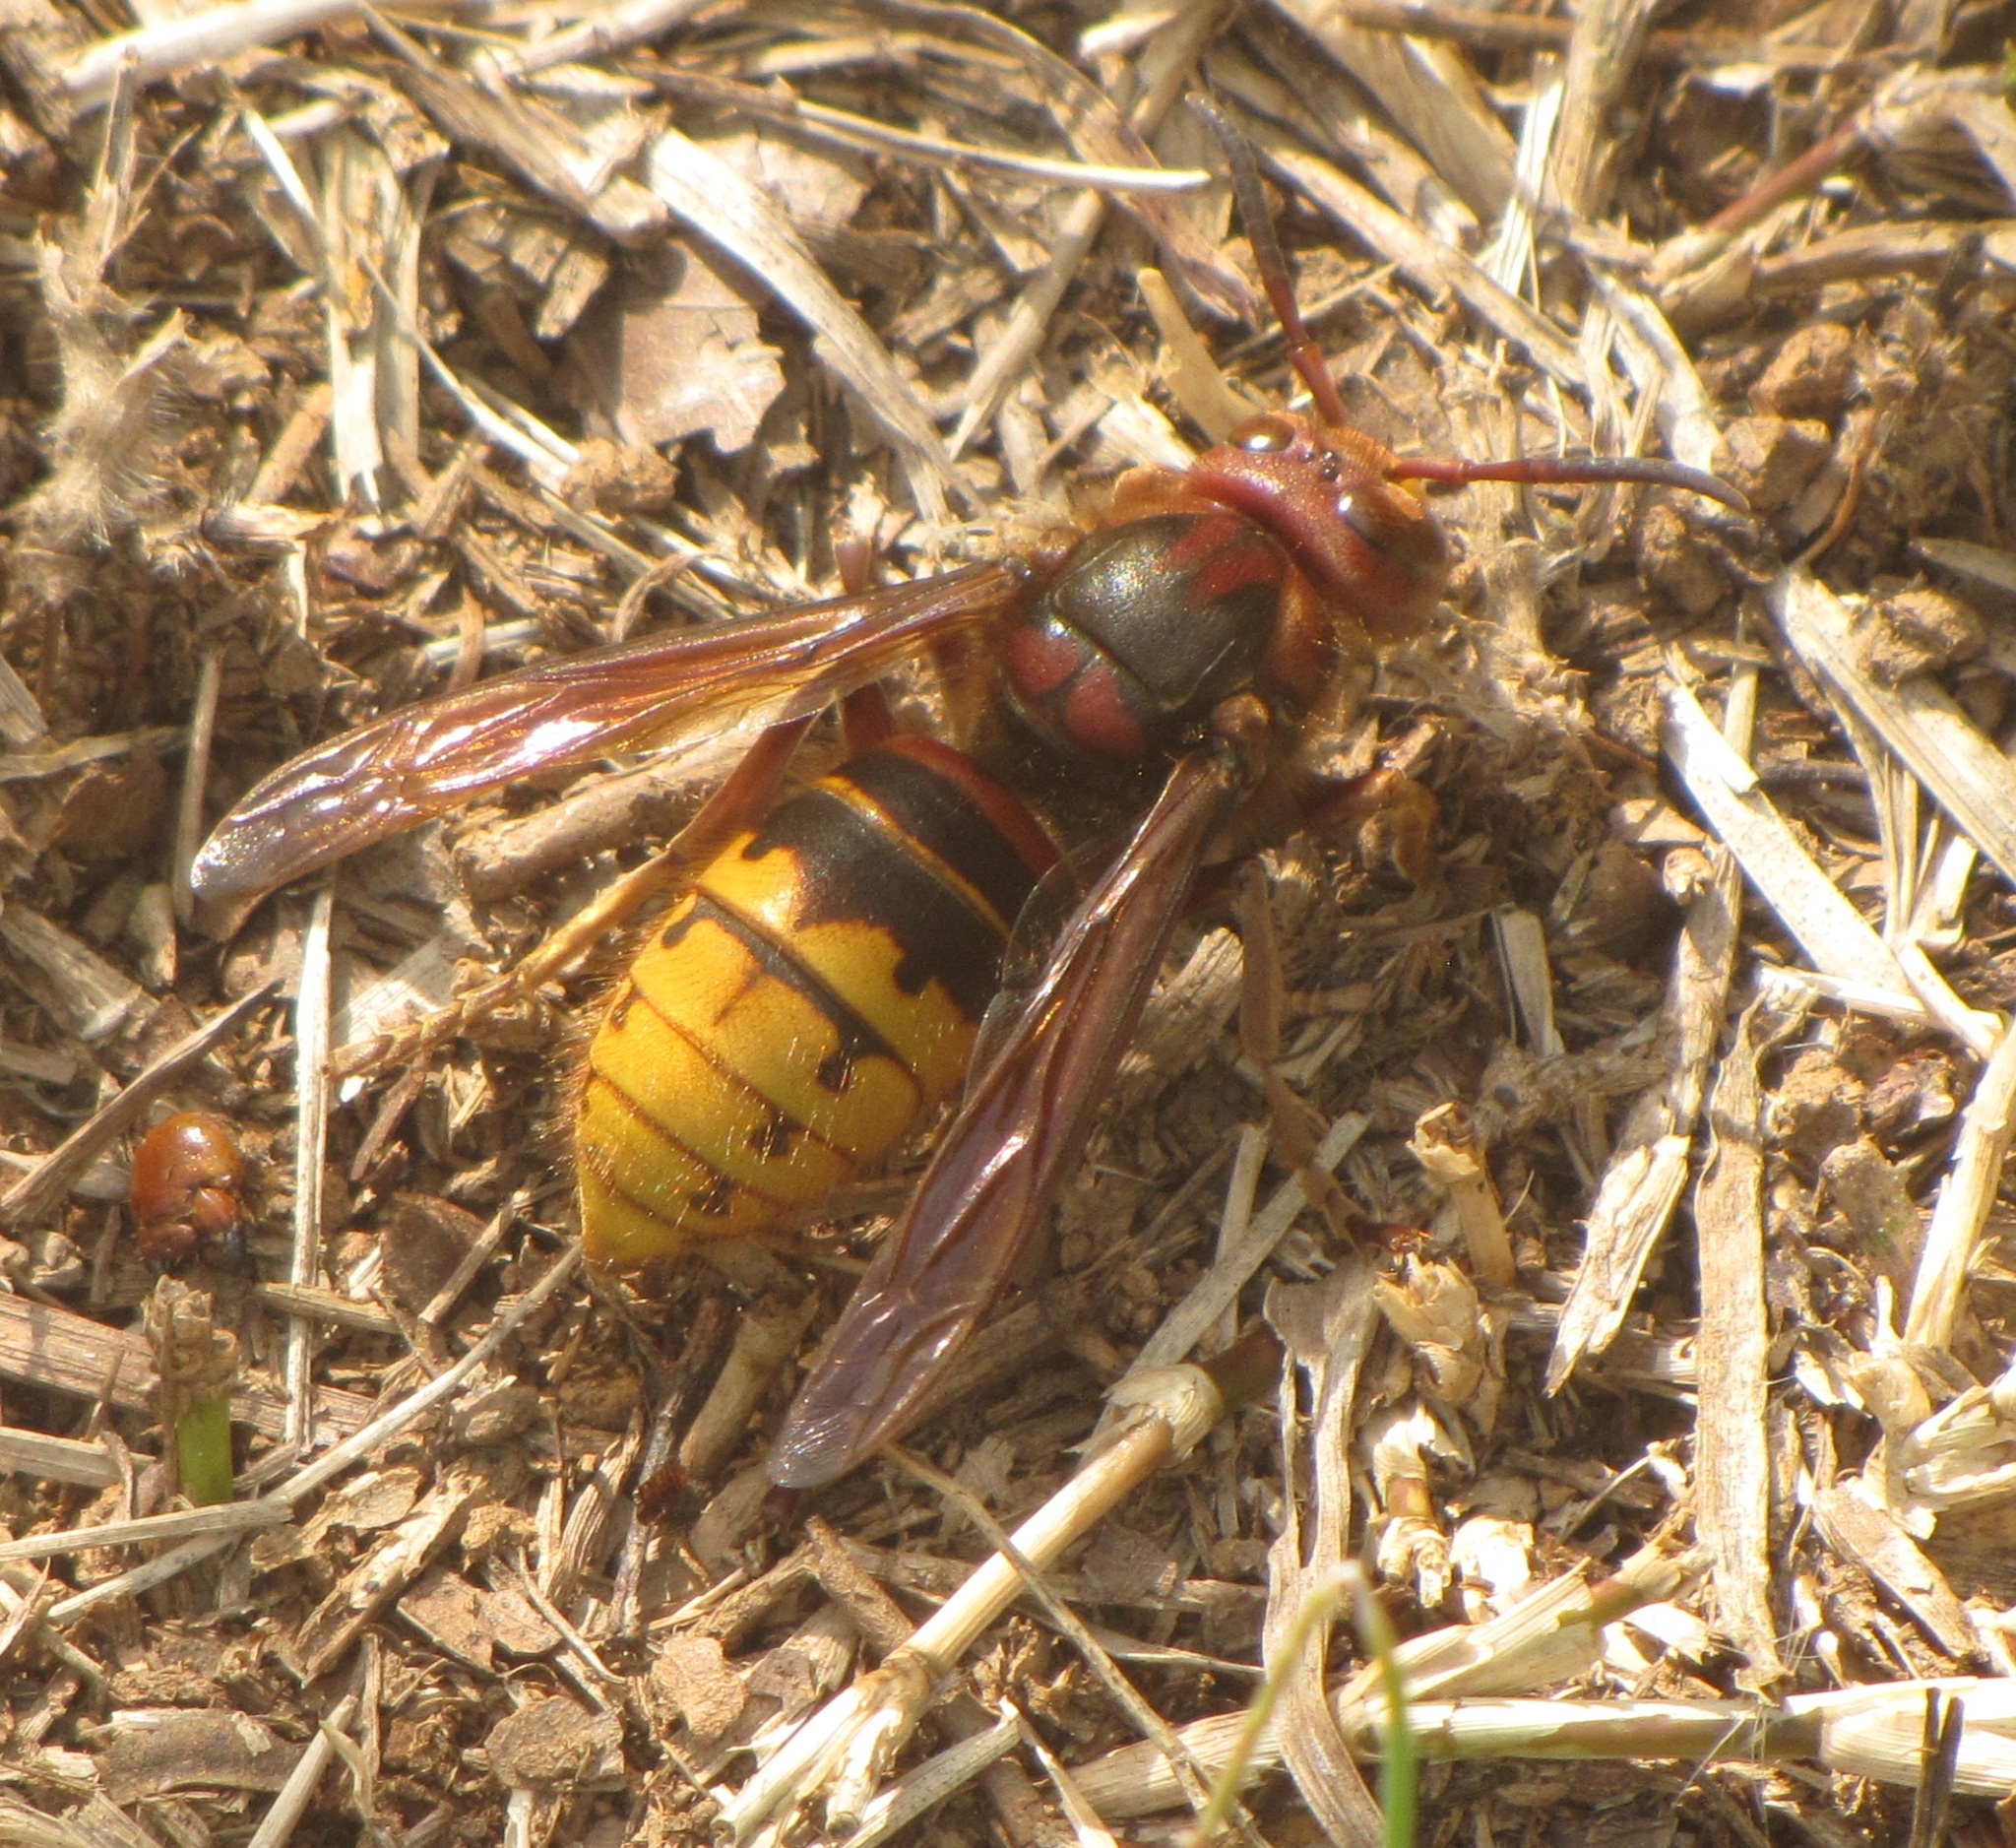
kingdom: Animalia
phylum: Arthropoda
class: Insecta
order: Hymenoptera
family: Vespidae
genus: Vespa
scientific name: Vespa crabro
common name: Hornet
